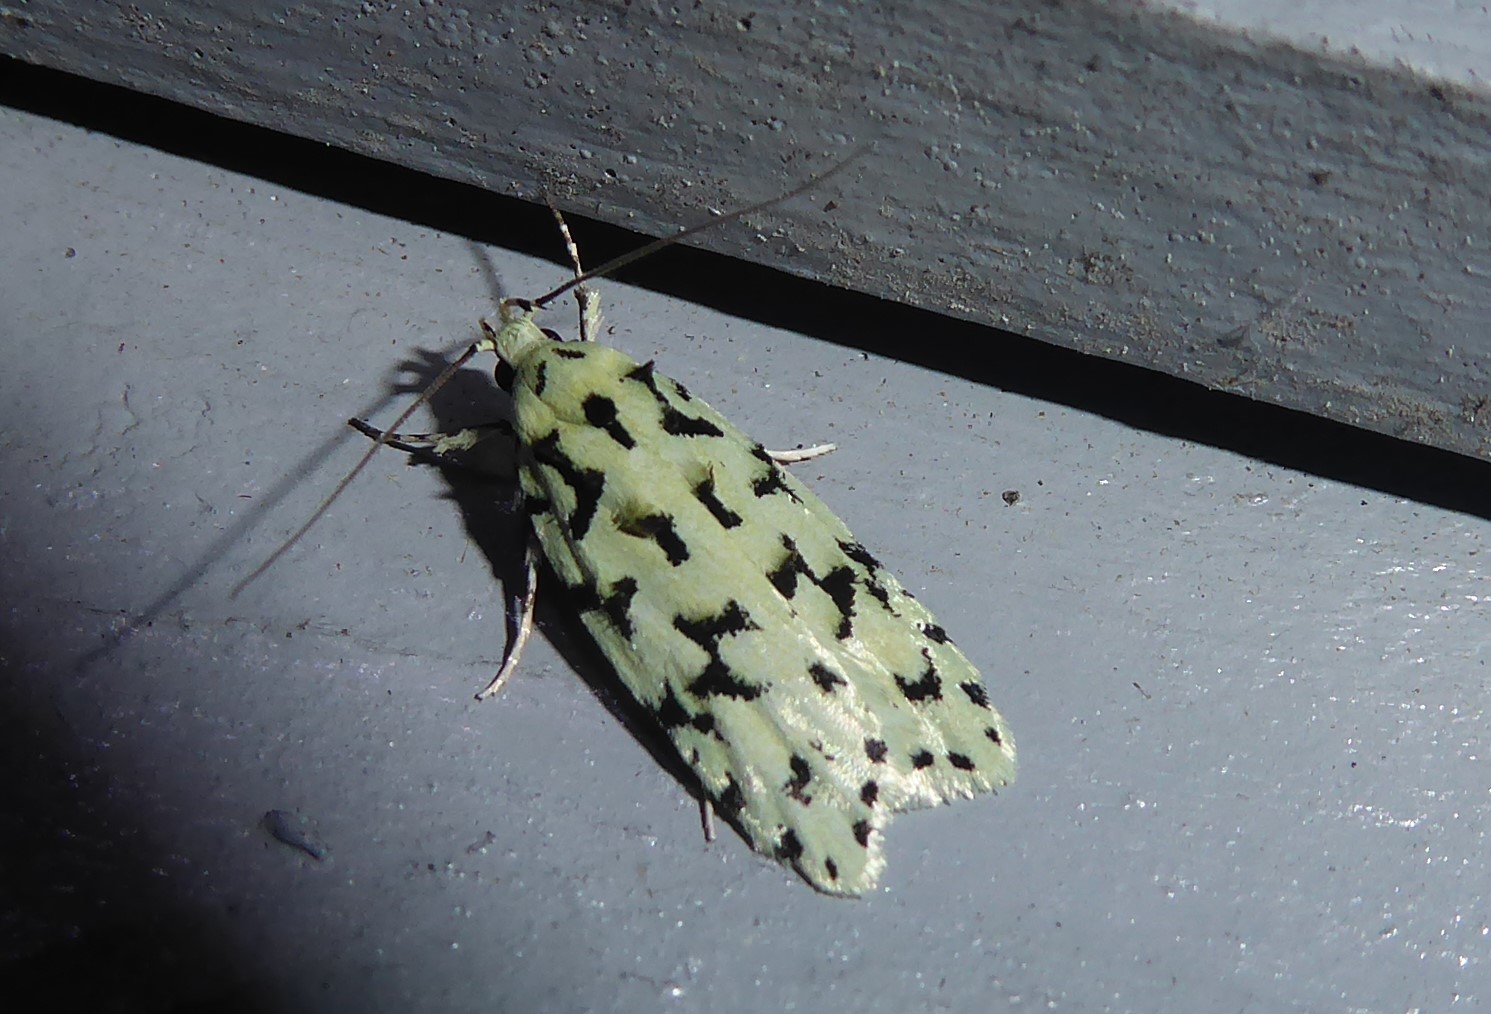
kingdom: Animalia
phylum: Arthropoda
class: Insecta
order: Lepidoptera
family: Oecophoridae
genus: Izatha
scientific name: Izatha huttoni
